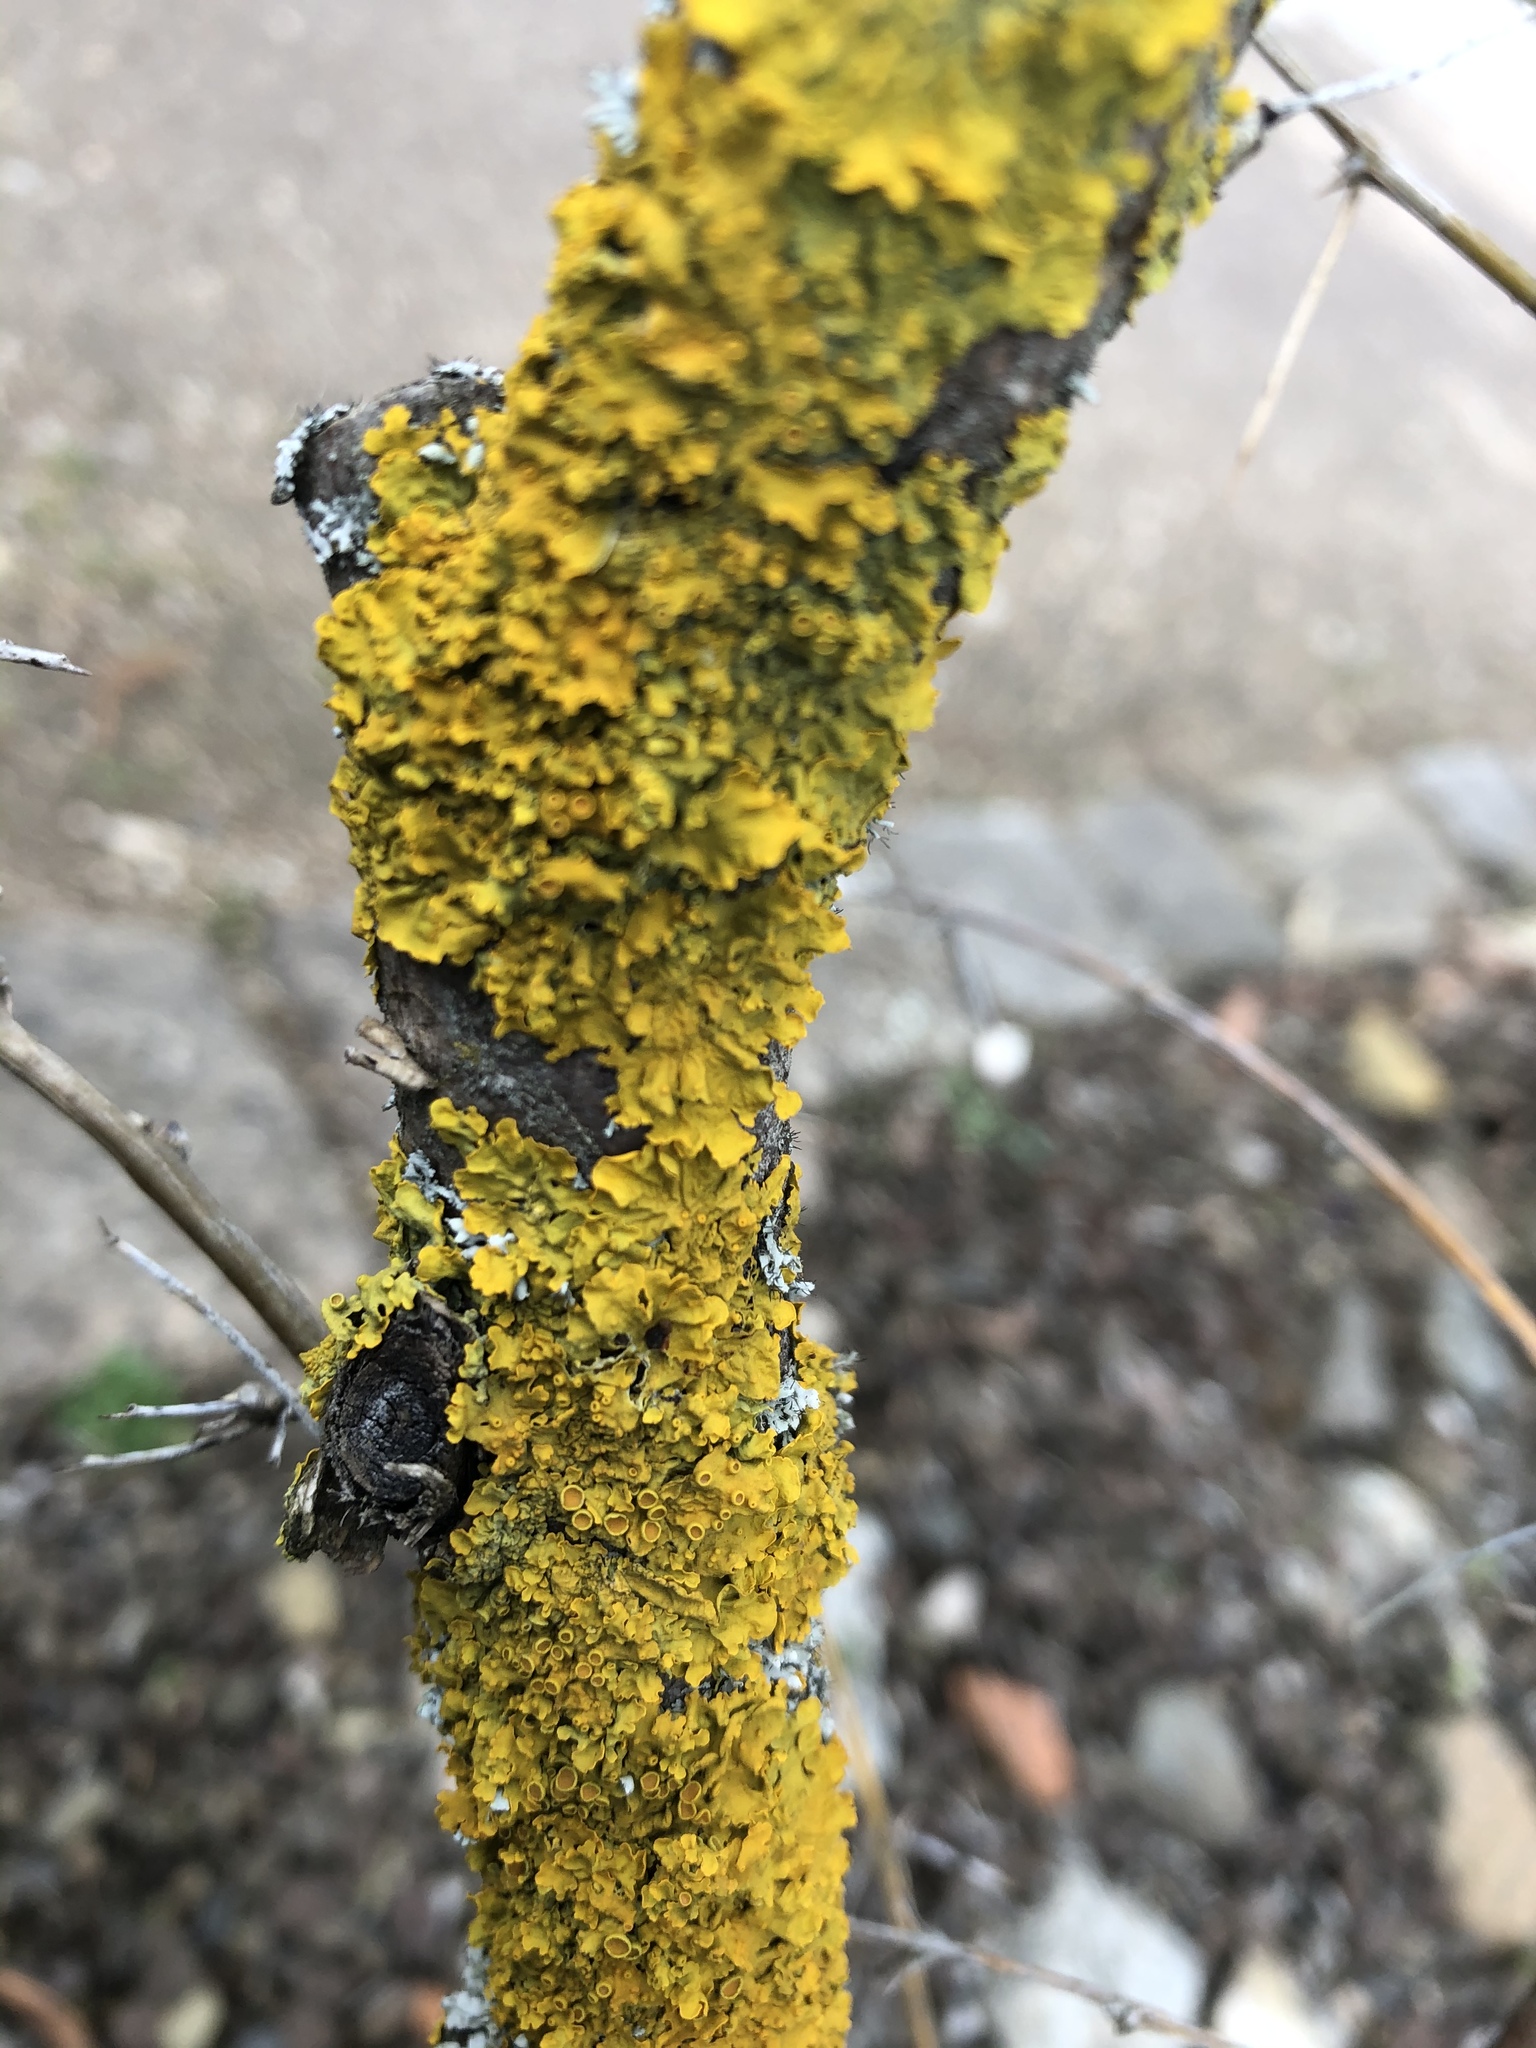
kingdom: Fungi
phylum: Ascomycota
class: Lecanoromycetes
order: Teloschistales
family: Teloschistaceae
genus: Xanthoria
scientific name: Xanthoria parietina
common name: Common orange lichen
